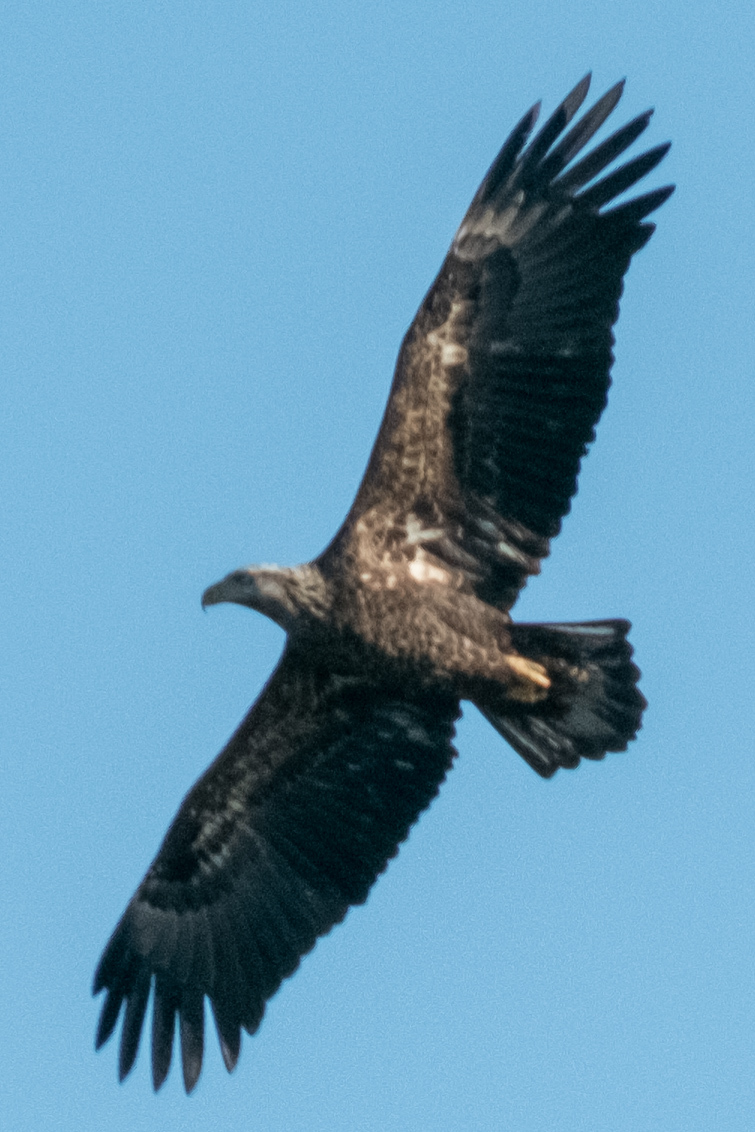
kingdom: Animalia
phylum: Chordata
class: Aves
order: Accipitriformes
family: Accipitridae
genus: Haliaeetus
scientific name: Haliaeetus leucocephalus
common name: Bald eagle
